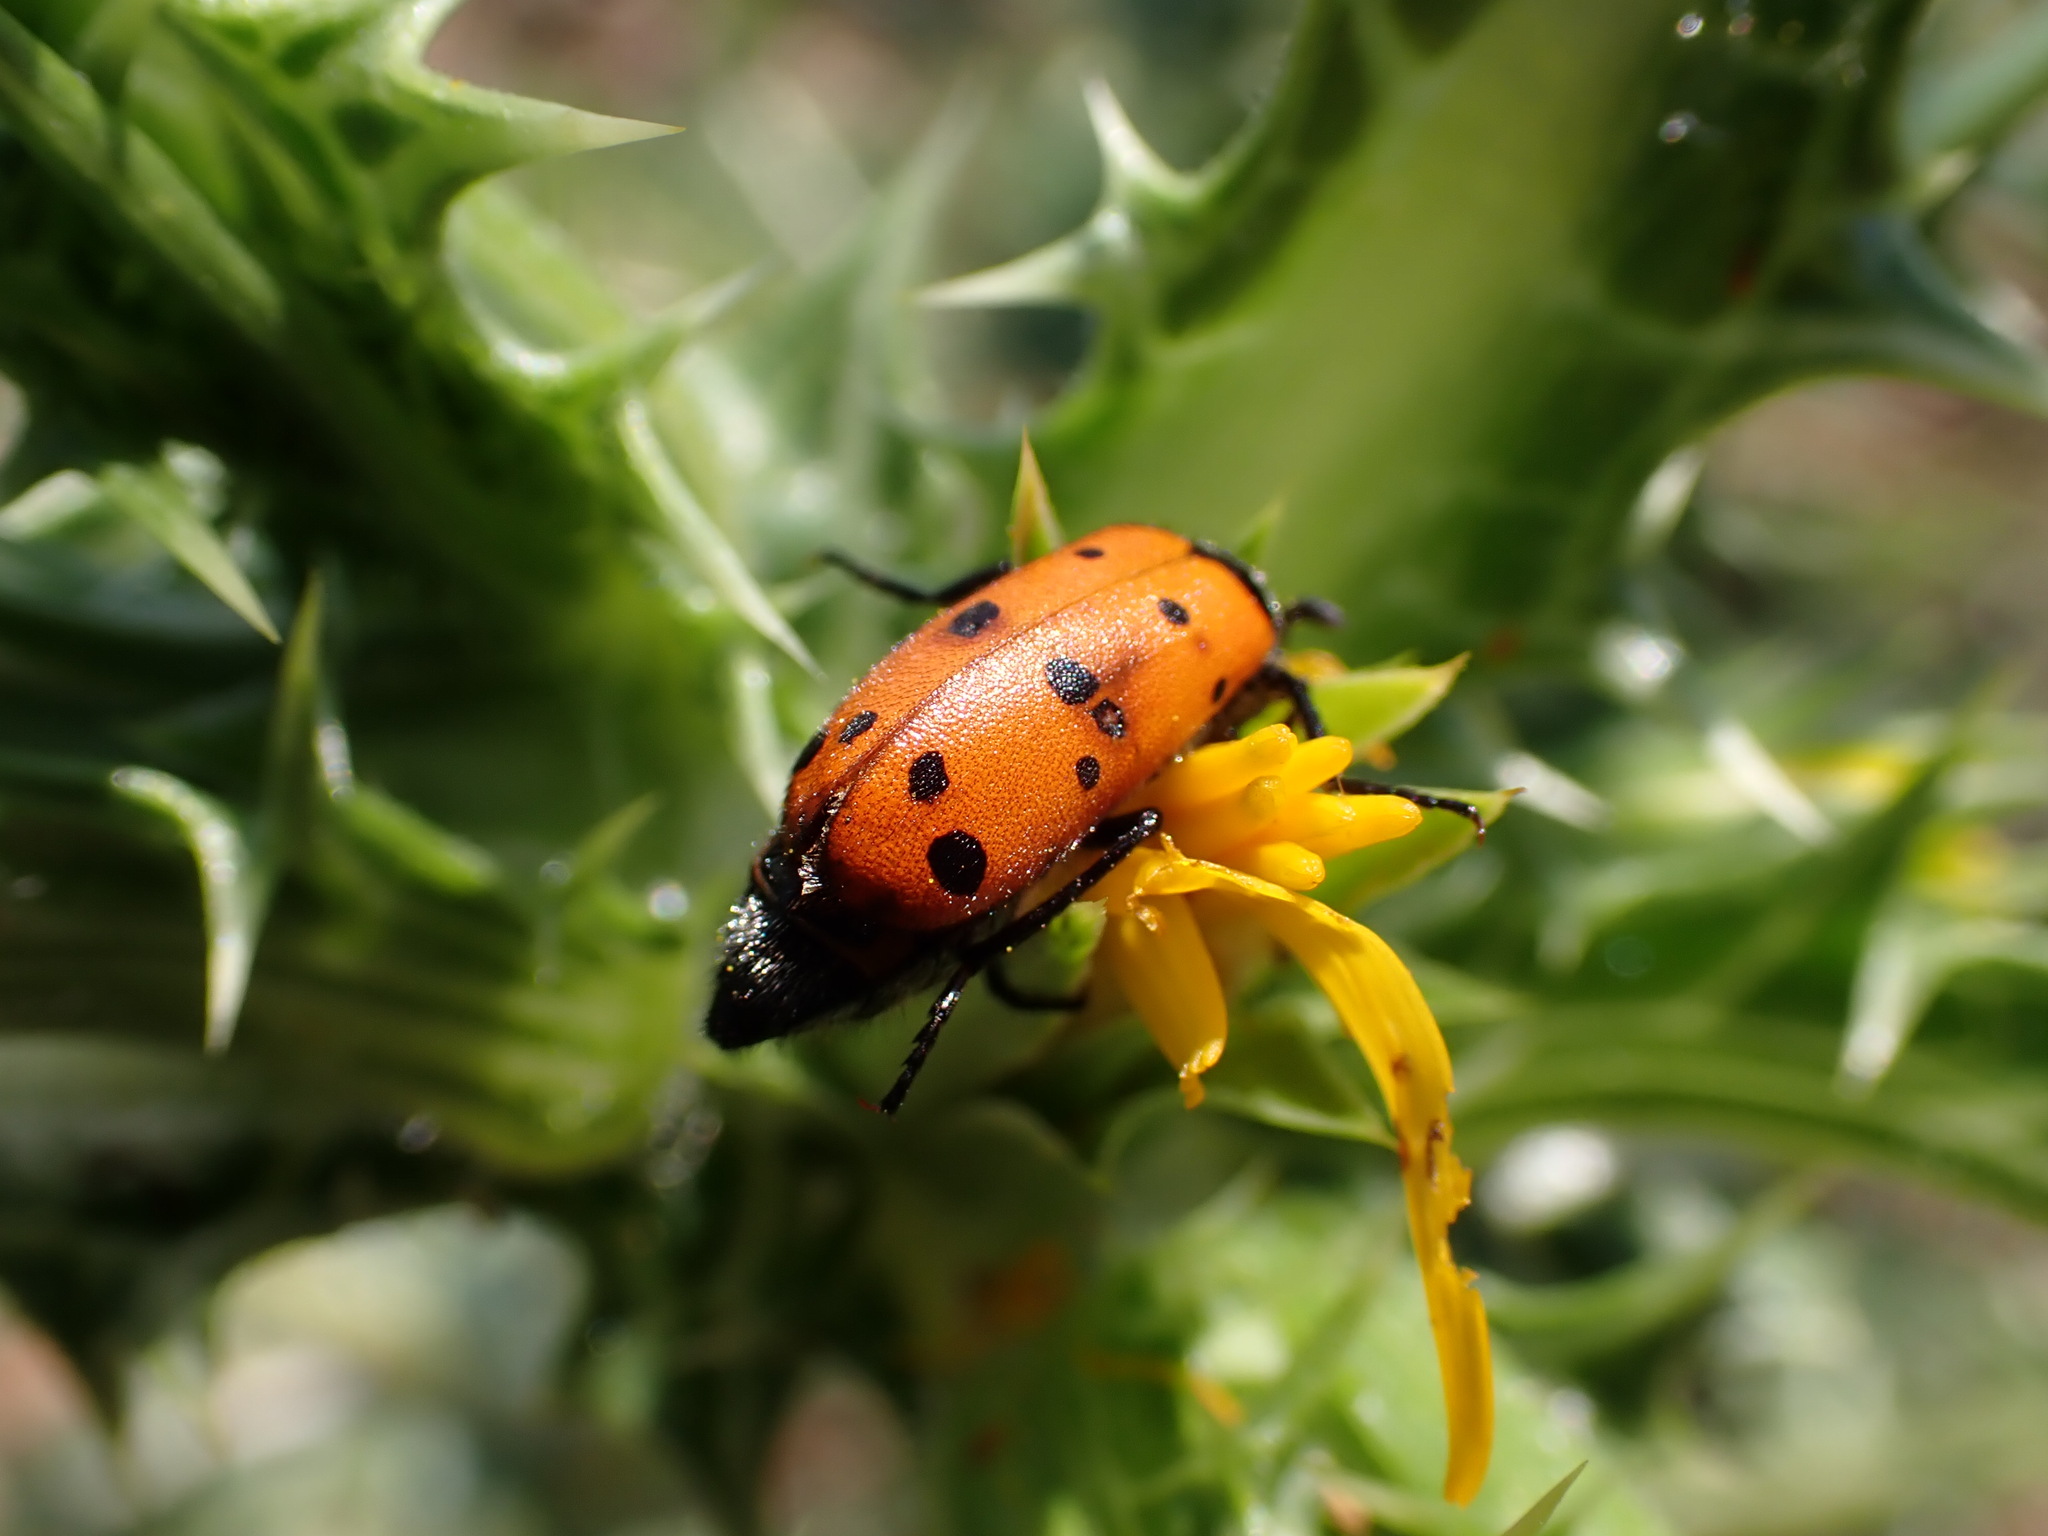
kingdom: Animalia
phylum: Arthropoda
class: Insecta
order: Coleoptera
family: Meloidae
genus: Hycleus
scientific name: Hycleus duodecimpunctatus
